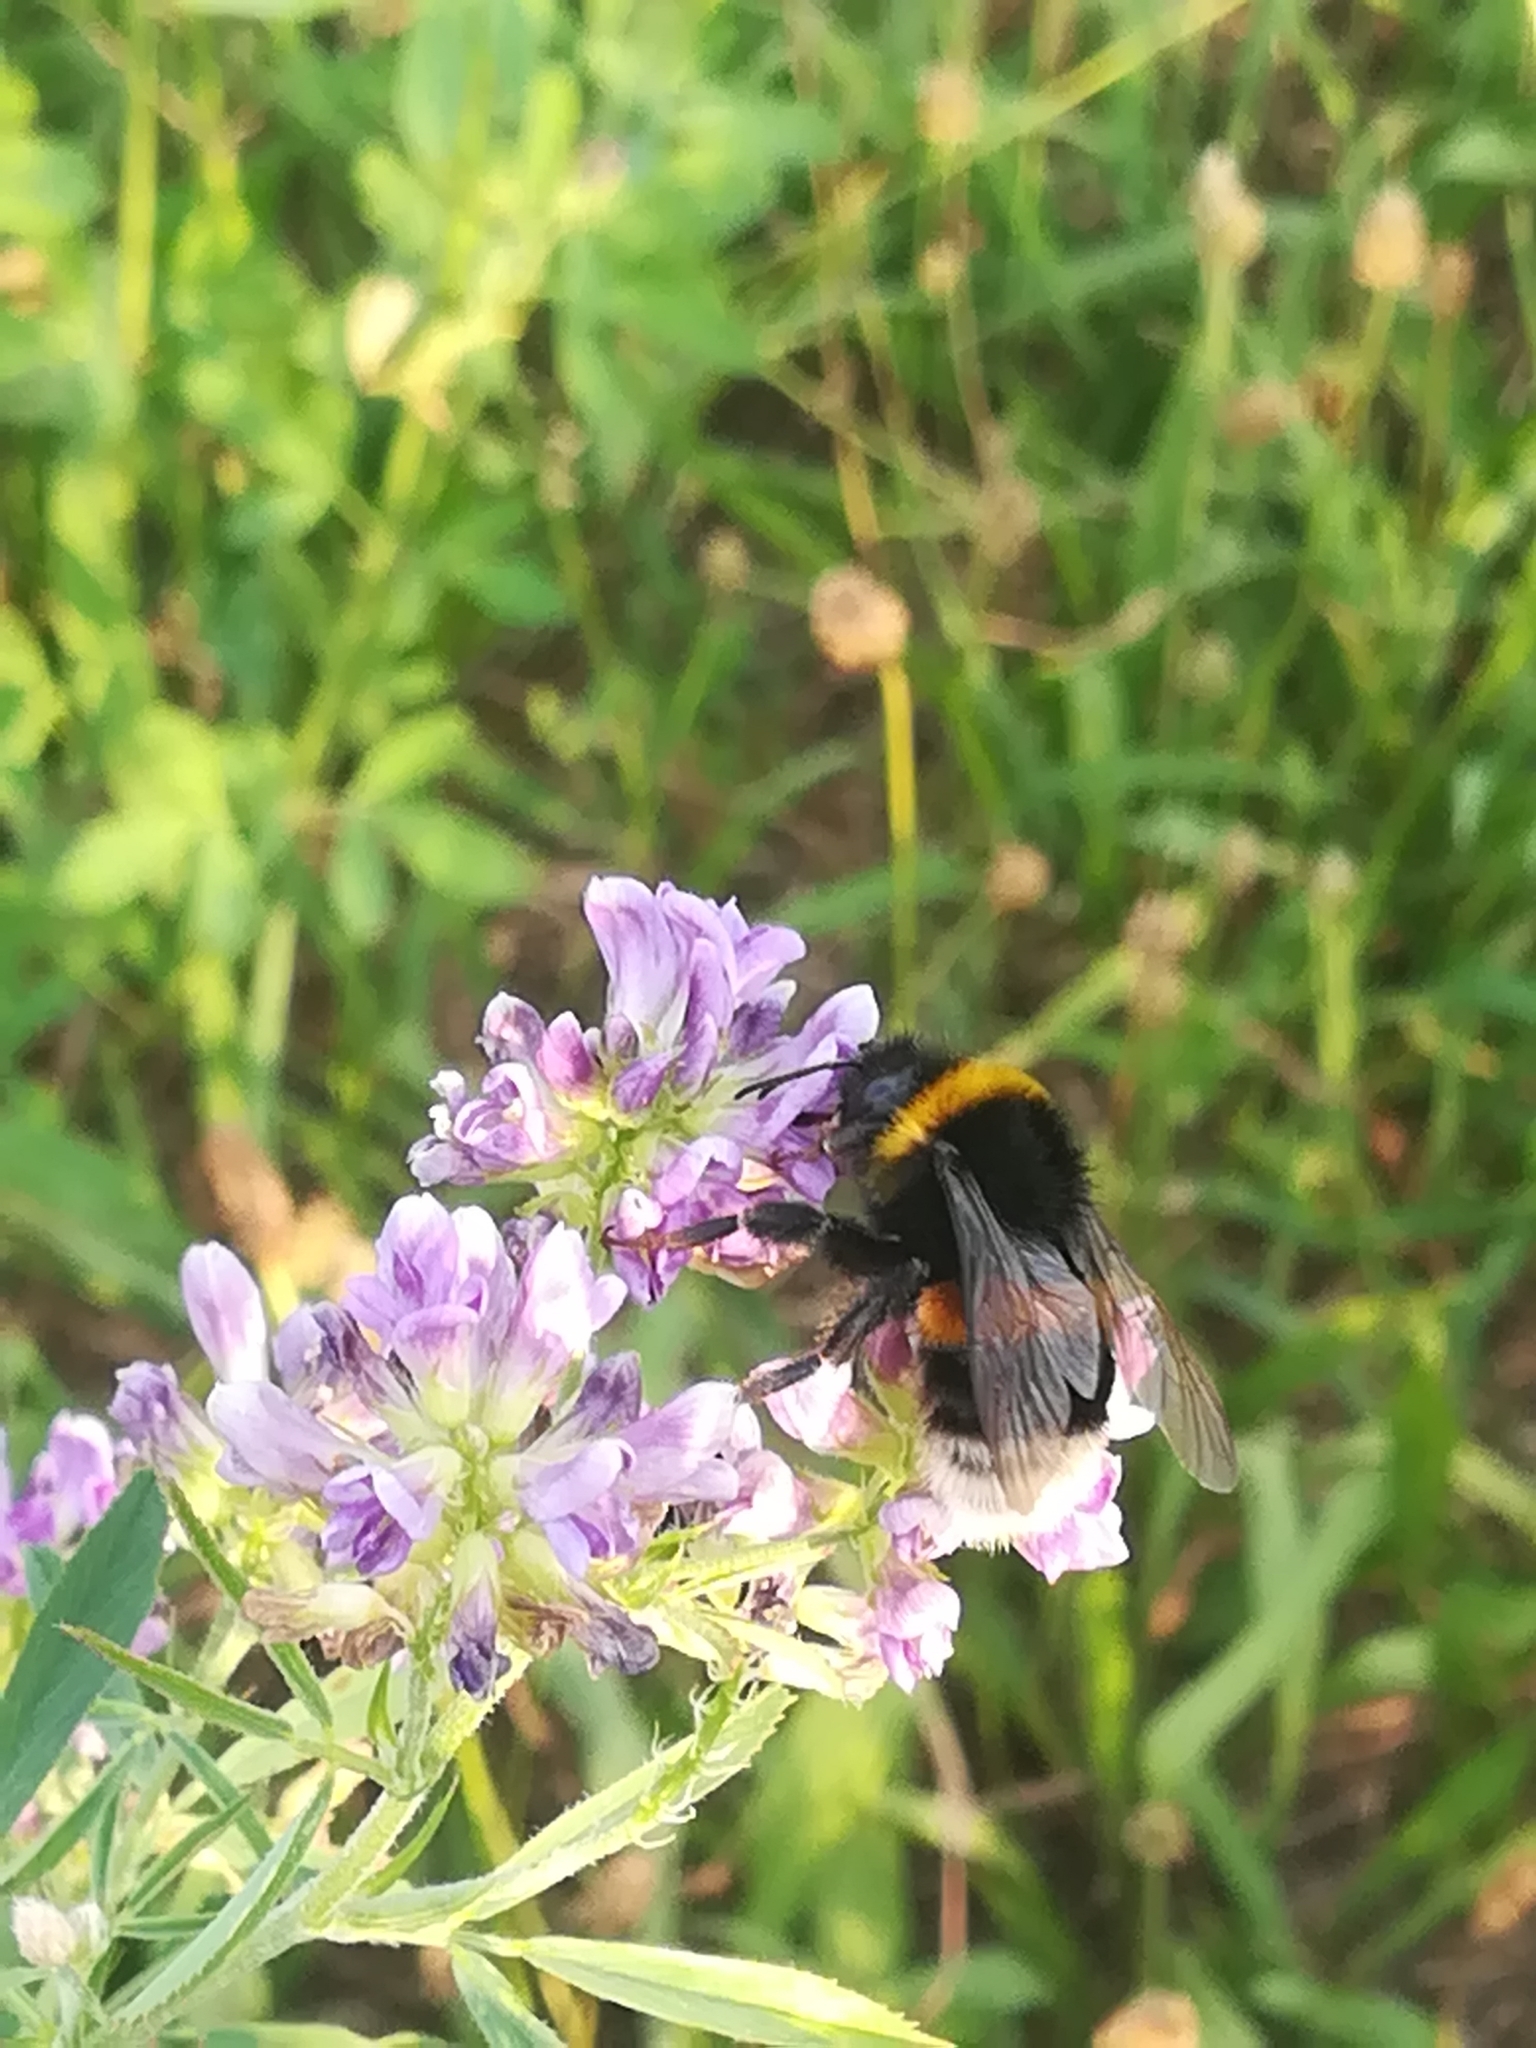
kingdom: Animalia
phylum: Arthropoda
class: Insecta
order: Hymenoptera
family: Apidae
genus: Bombus
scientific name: Bombus terrestris
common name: Buff-tailed bumblebee
